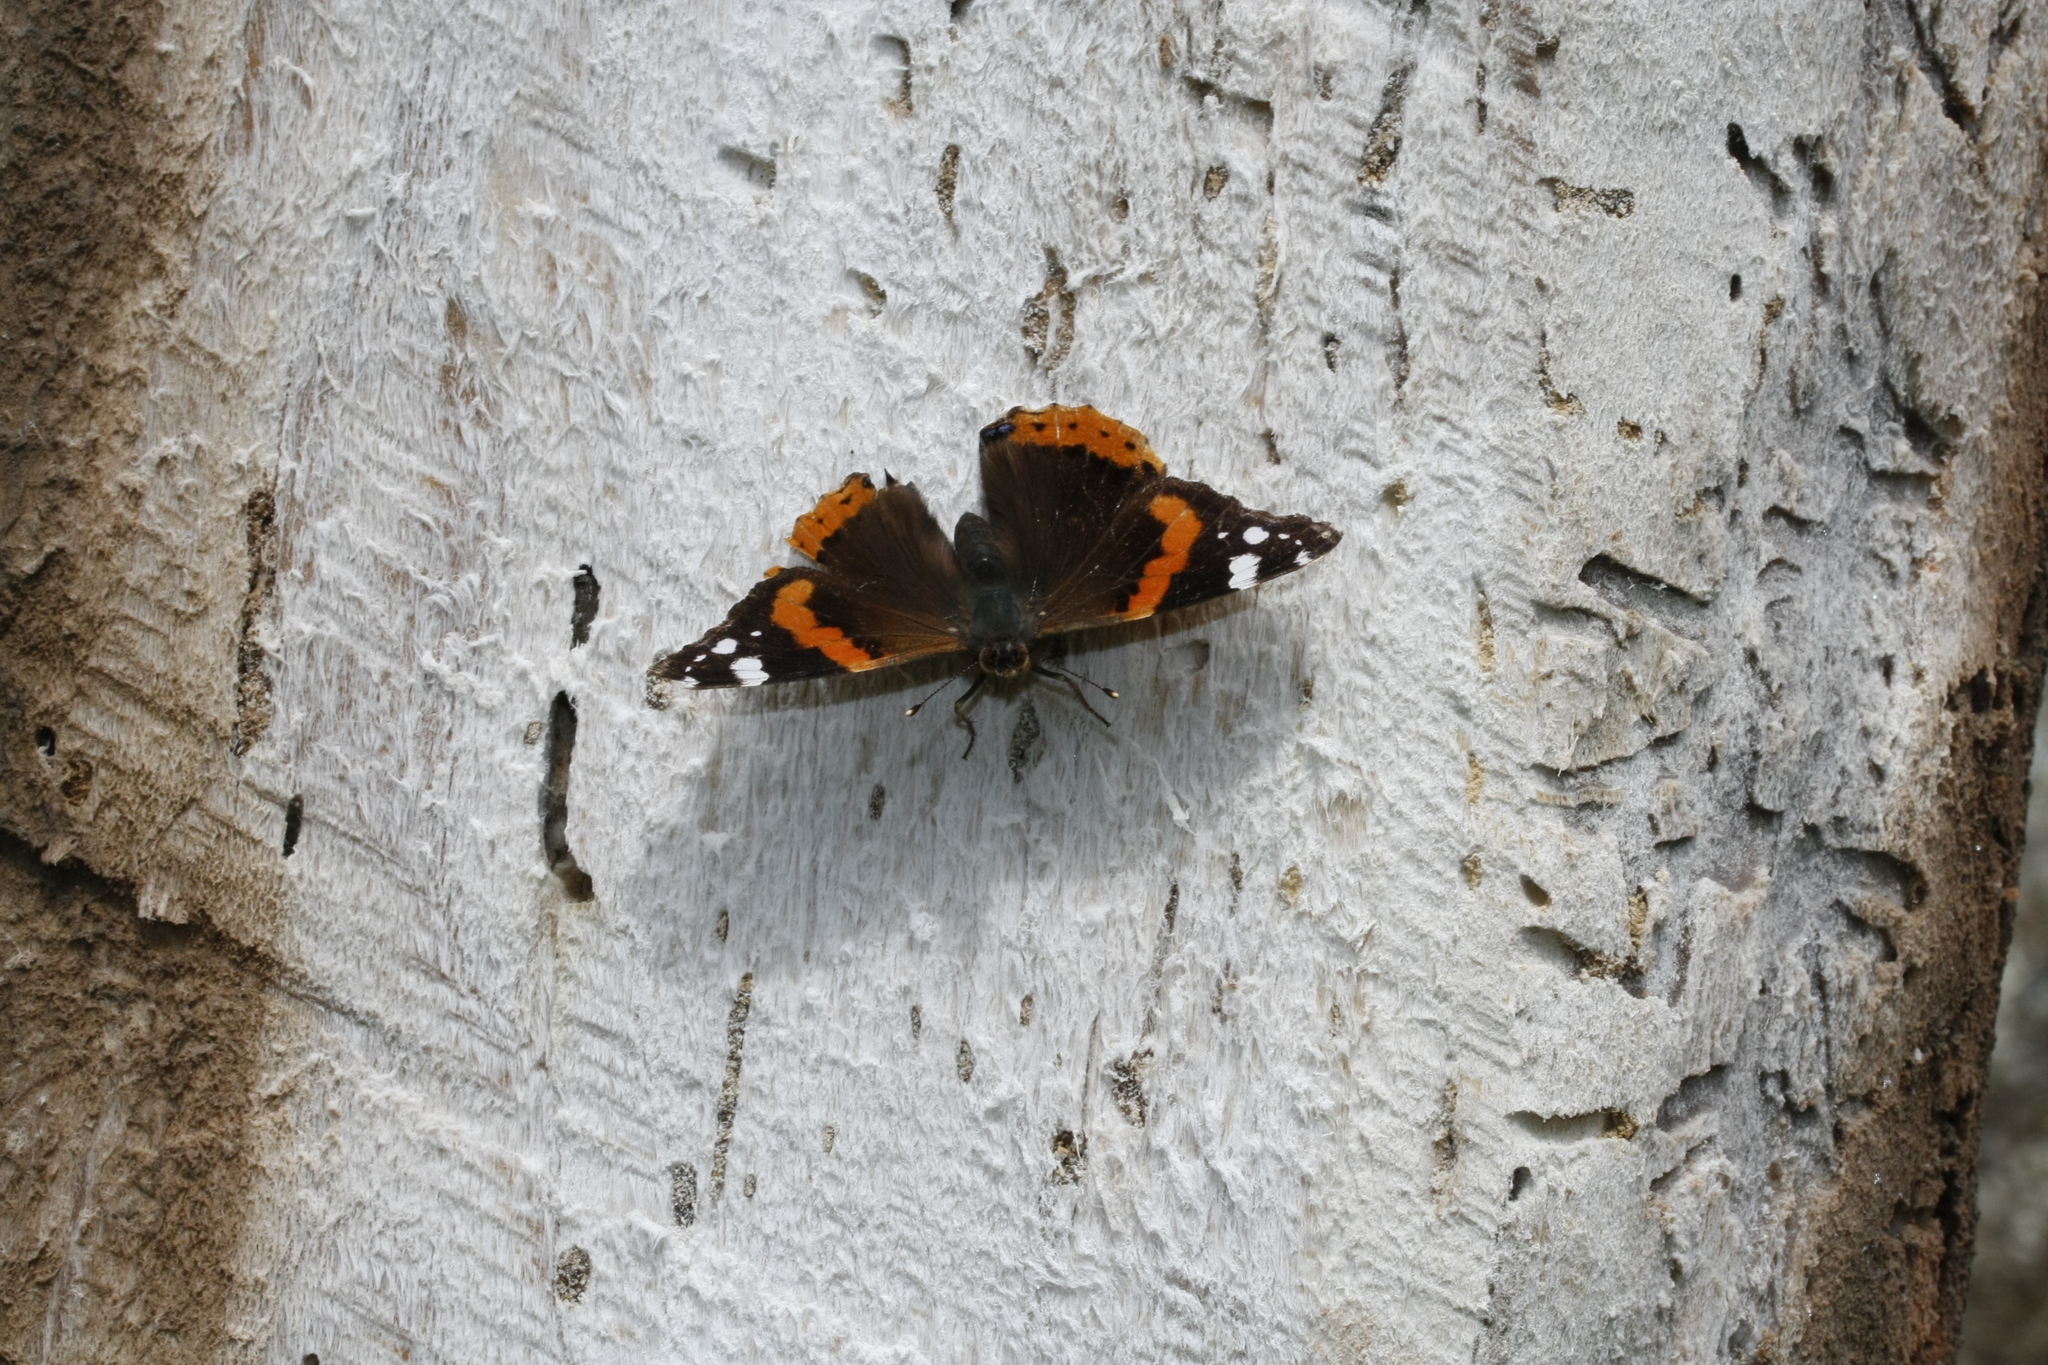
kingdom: Animalia
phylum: Arthropoda
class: Insecta
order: Lepidoptera
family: Nymphalidae
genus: Vanessa
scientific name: Vanessa atalanta
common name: Red admiral
